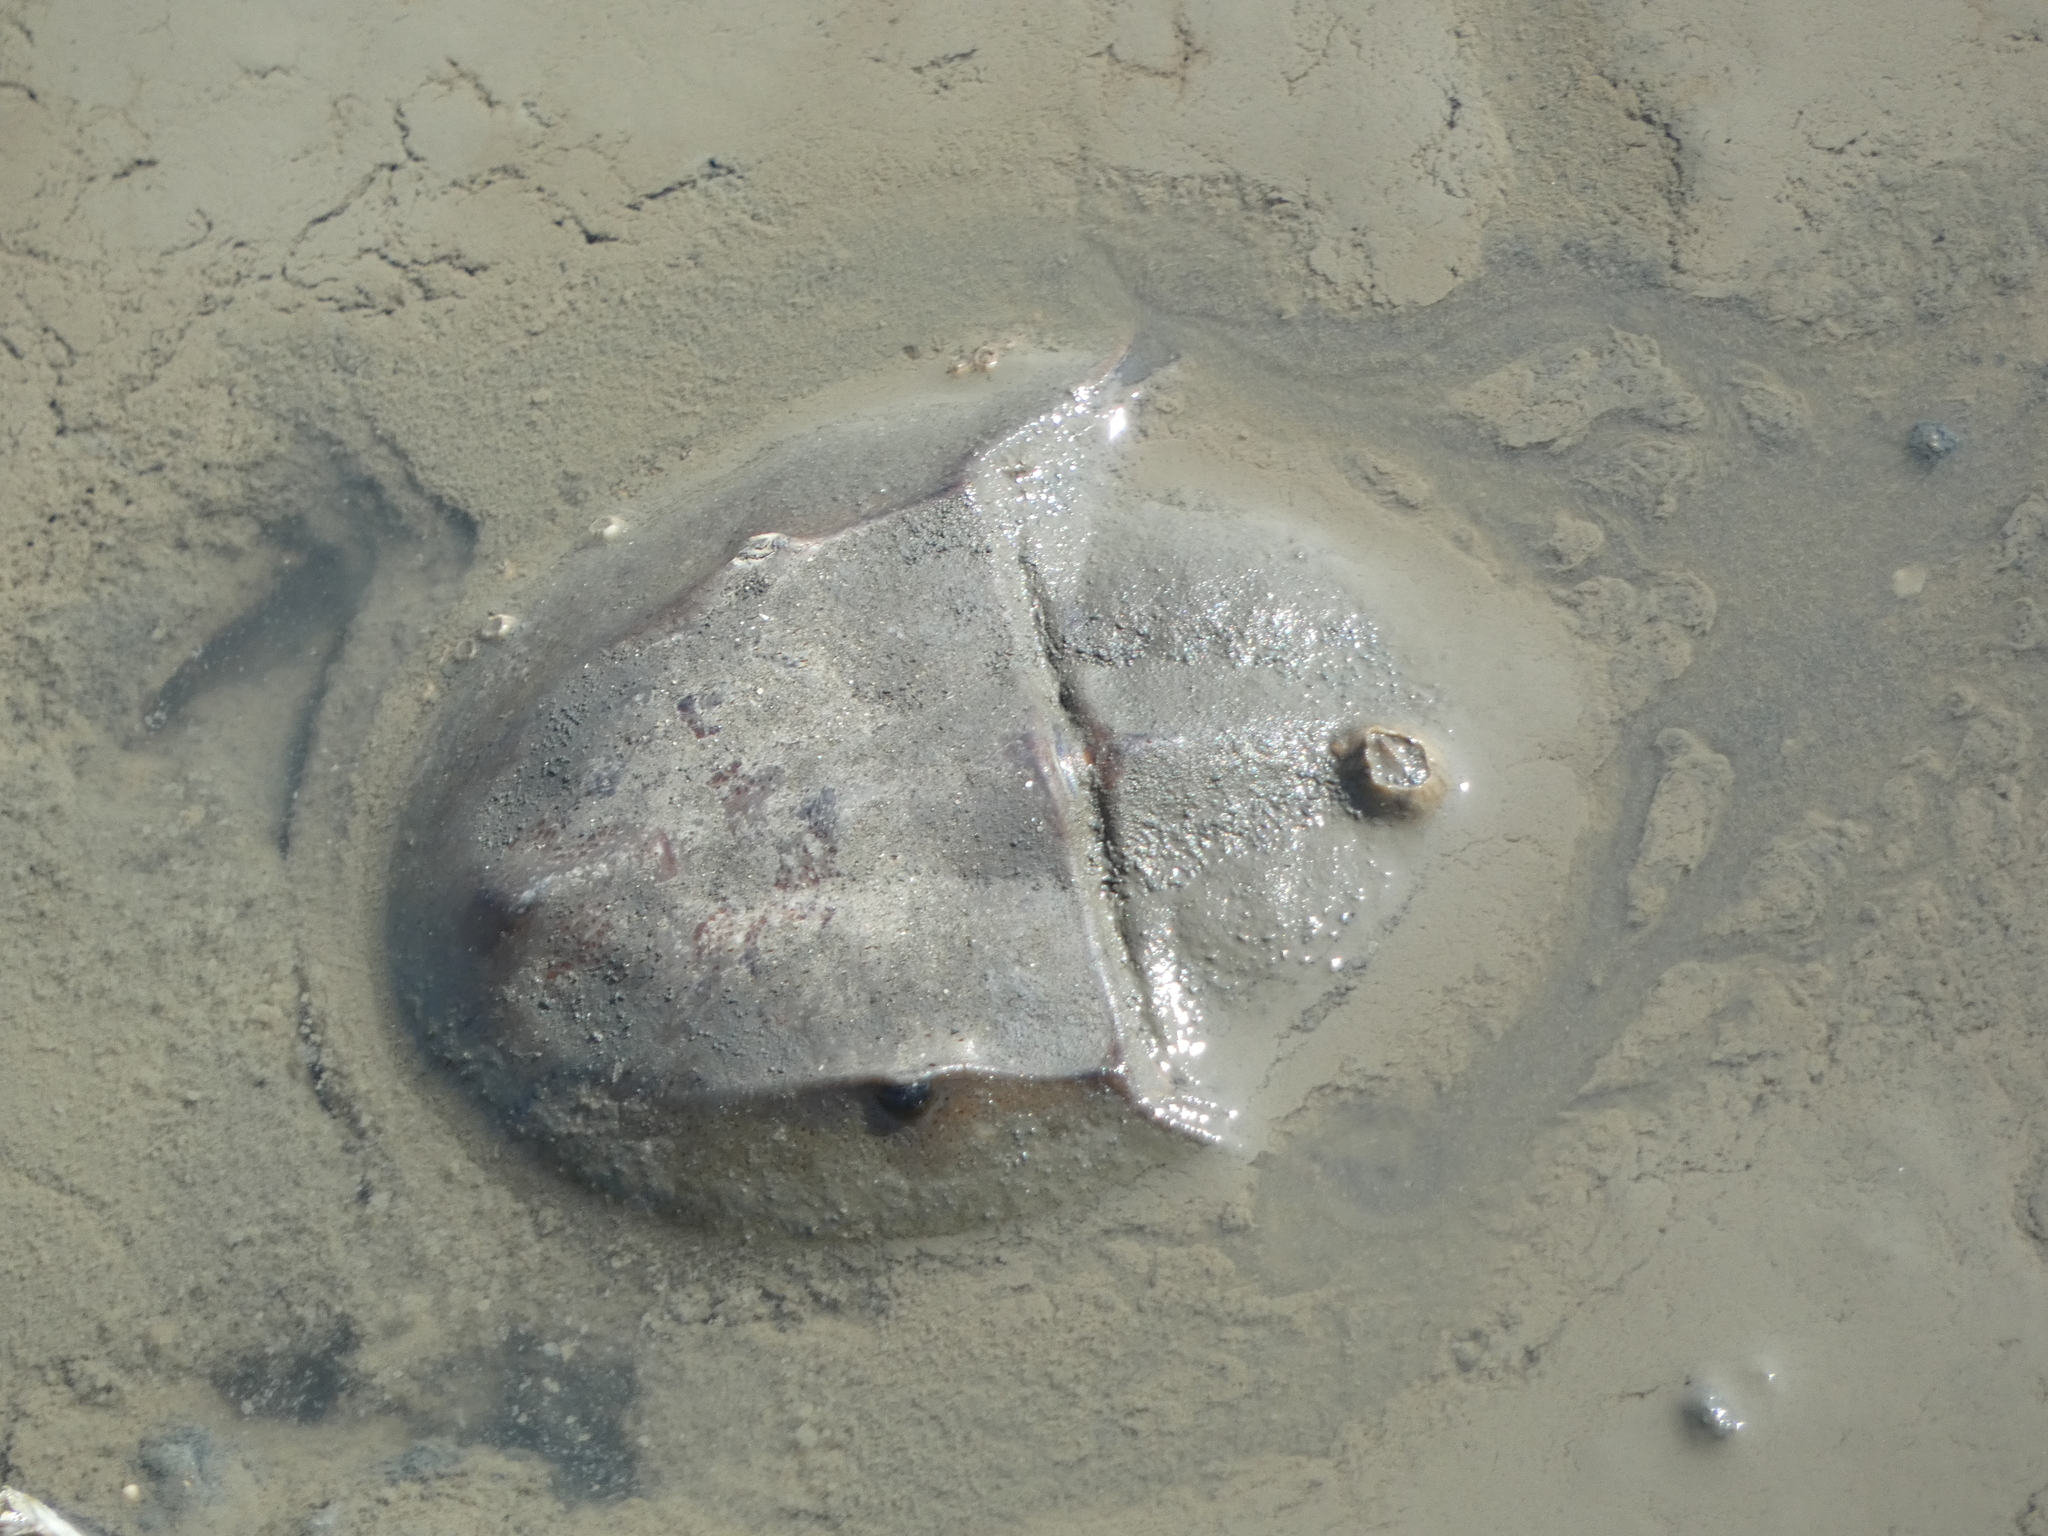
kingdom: Animalia
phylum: Arthropoda
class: Merostomata
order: Xiphosurida
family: Limulidae
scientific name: Limulidae
